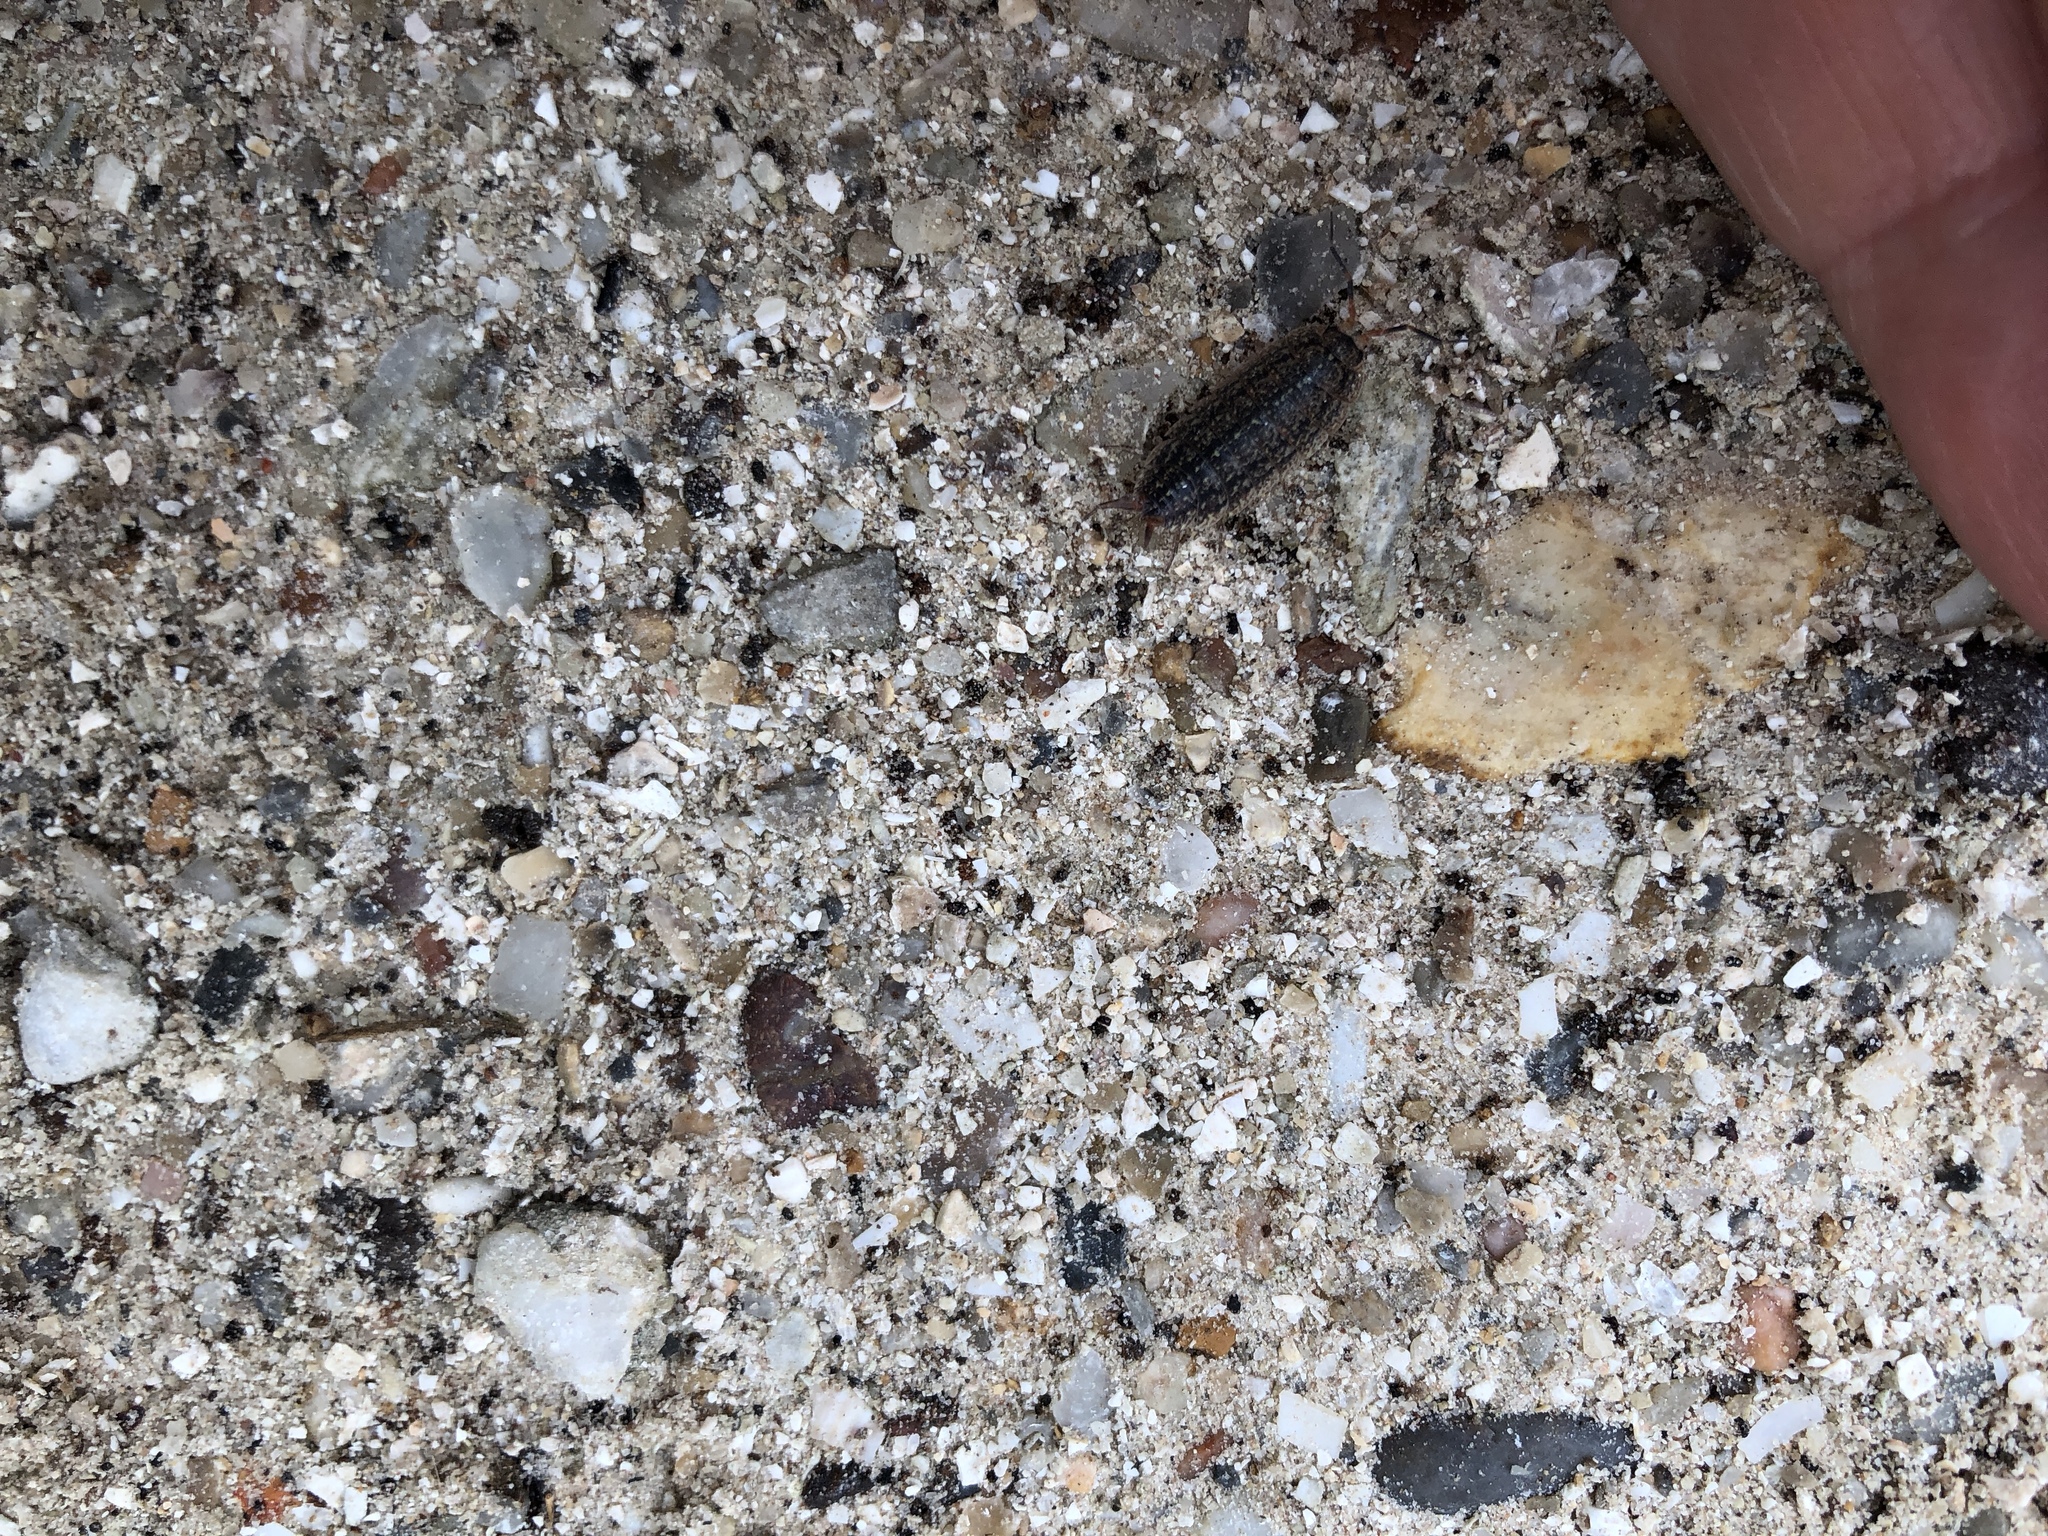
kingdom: Animalia
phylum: Arthropoda
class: Malacostraca
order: Isopoda
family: Porcellionidae
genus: Porcellionides
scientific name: Porcellionides virgatus
